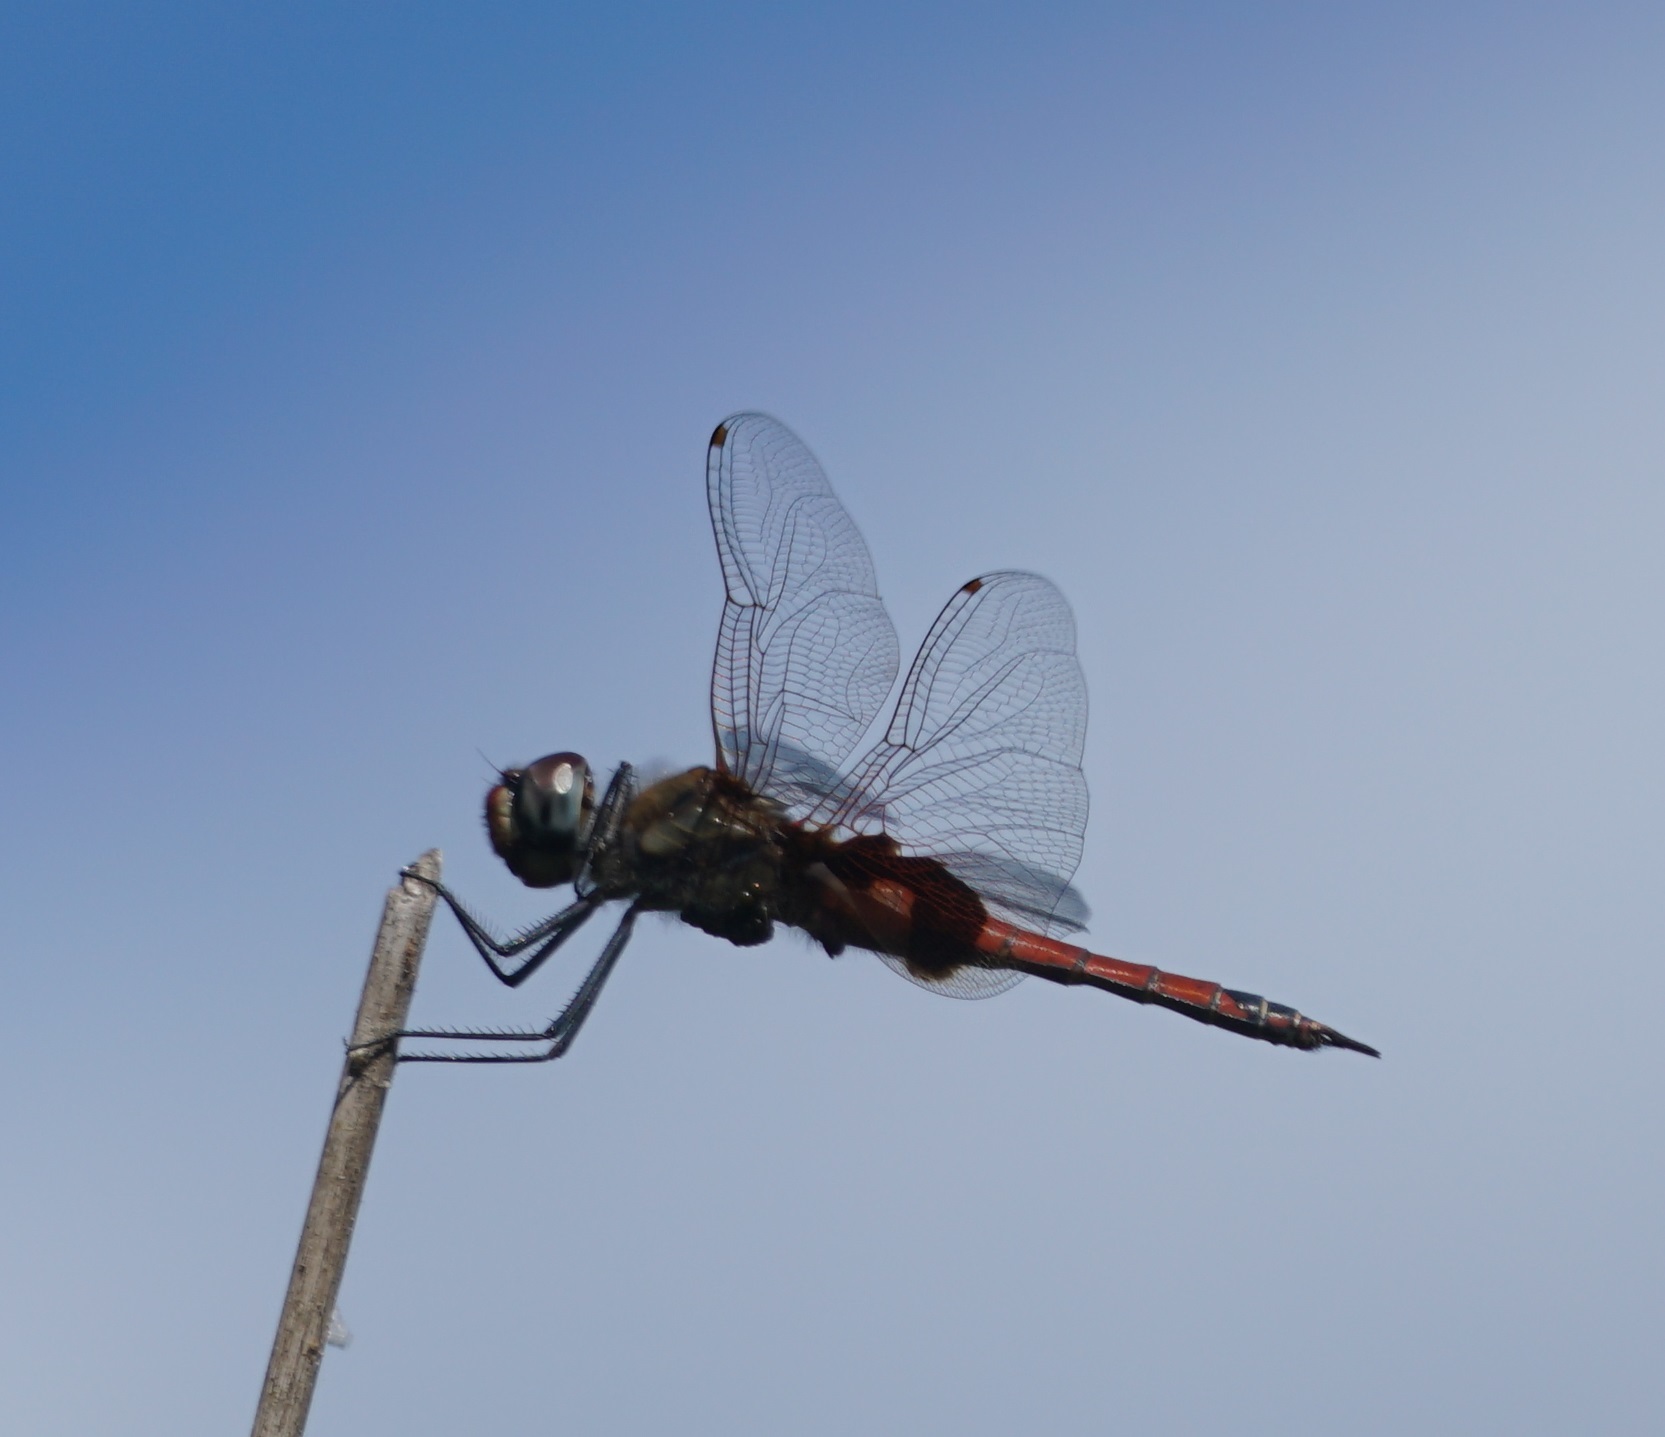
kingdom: Animalia
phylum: Arthropoda
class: Insecta
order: Odonata
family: Libellulidae
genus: Tramea
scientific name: Tramea loewii
